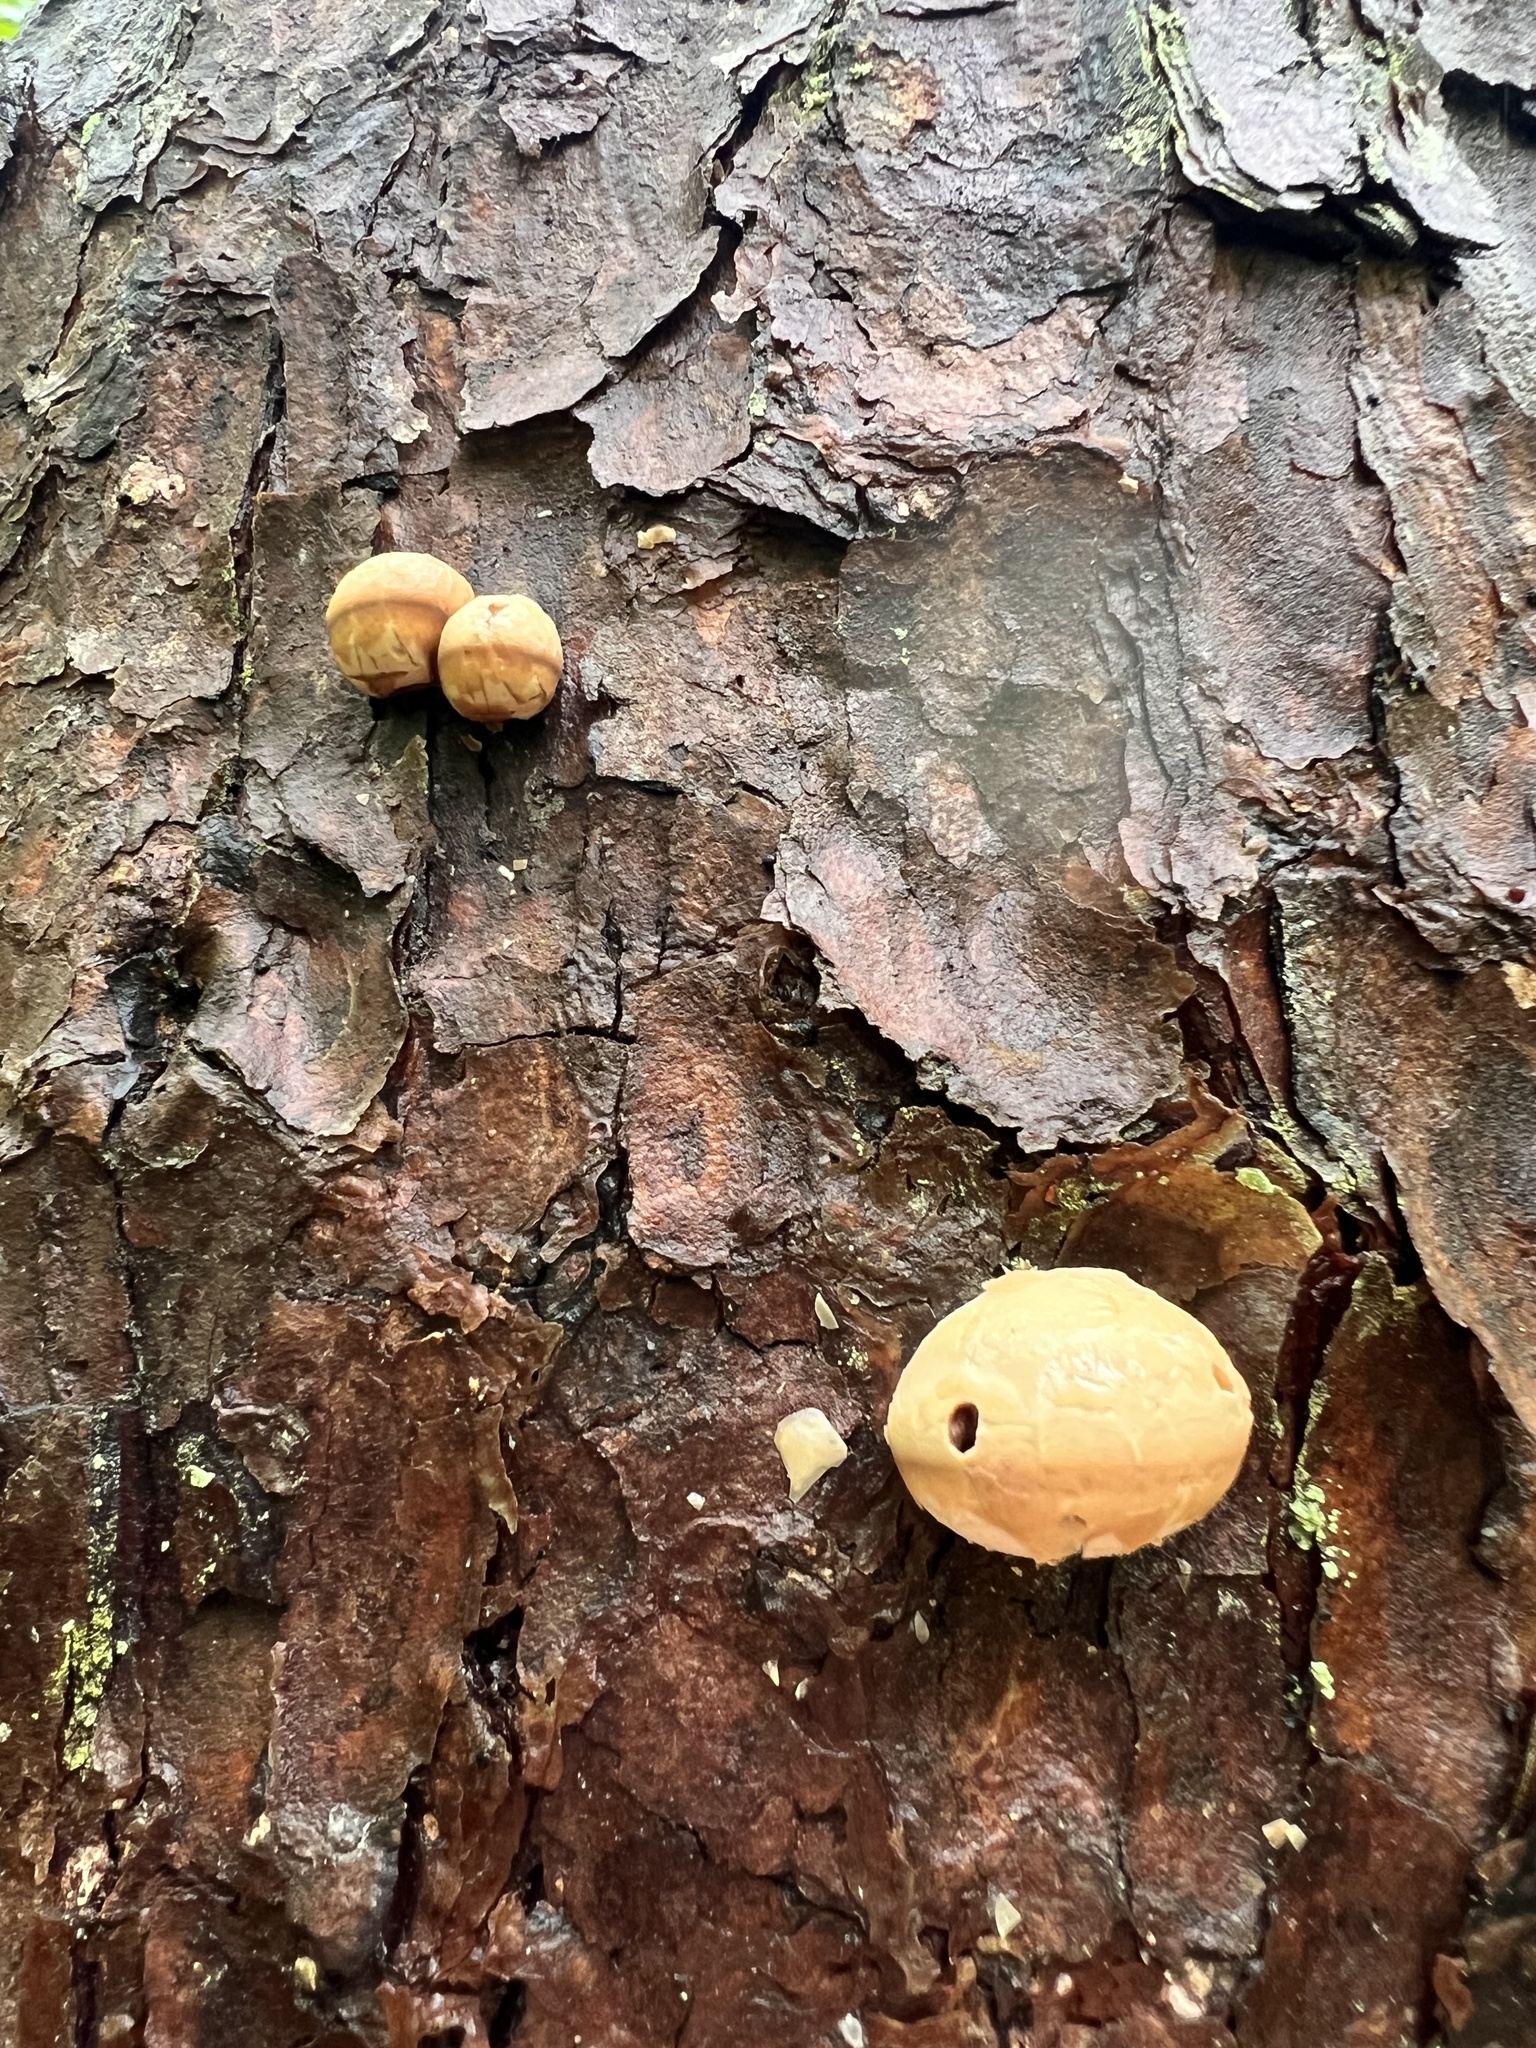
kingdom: Fungi
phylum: Basidiomycota
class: Agaricomycetes
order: Polyporales
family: Polyporaceae
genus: Cryptoporus
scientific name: Cryptoporus volvatus
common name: Veiled polypore
